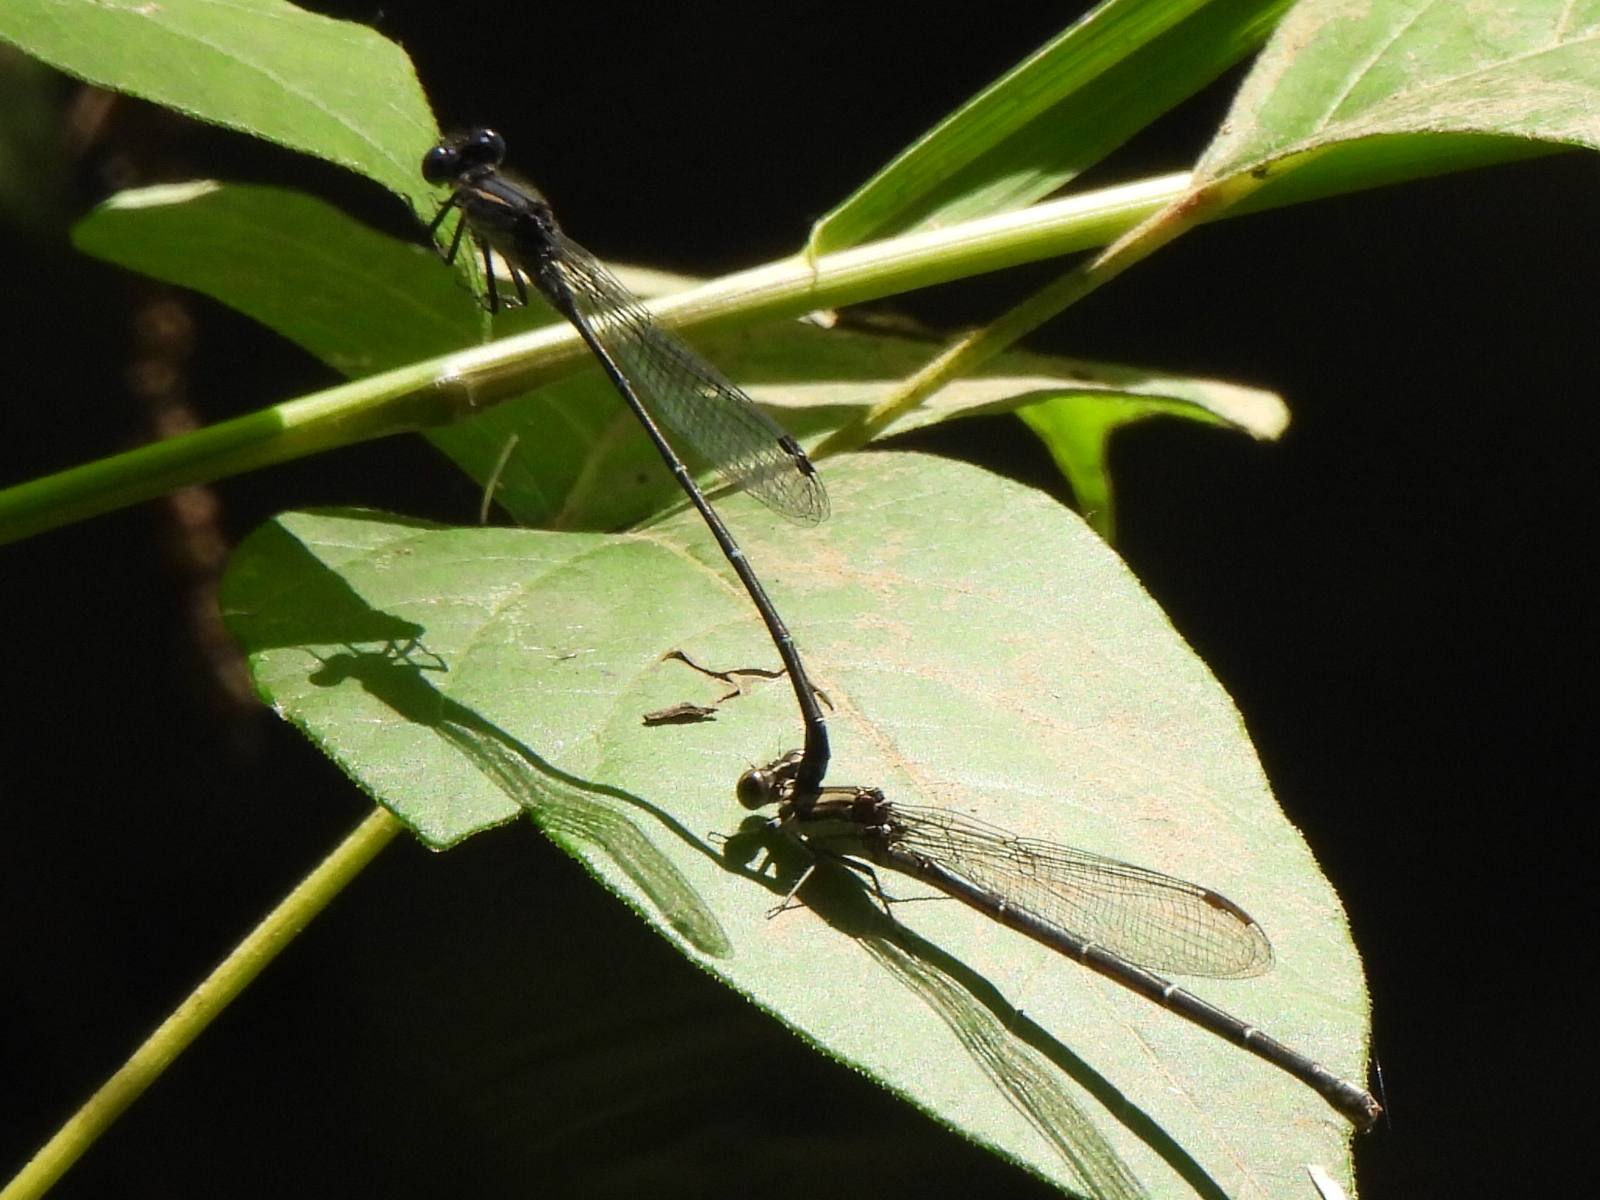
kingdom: Animalia
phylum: Arthropoda
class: Insecta
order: Odonata
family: Coenagrionidae
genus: Argia
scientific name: Argia translata
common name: Dusky dancer
